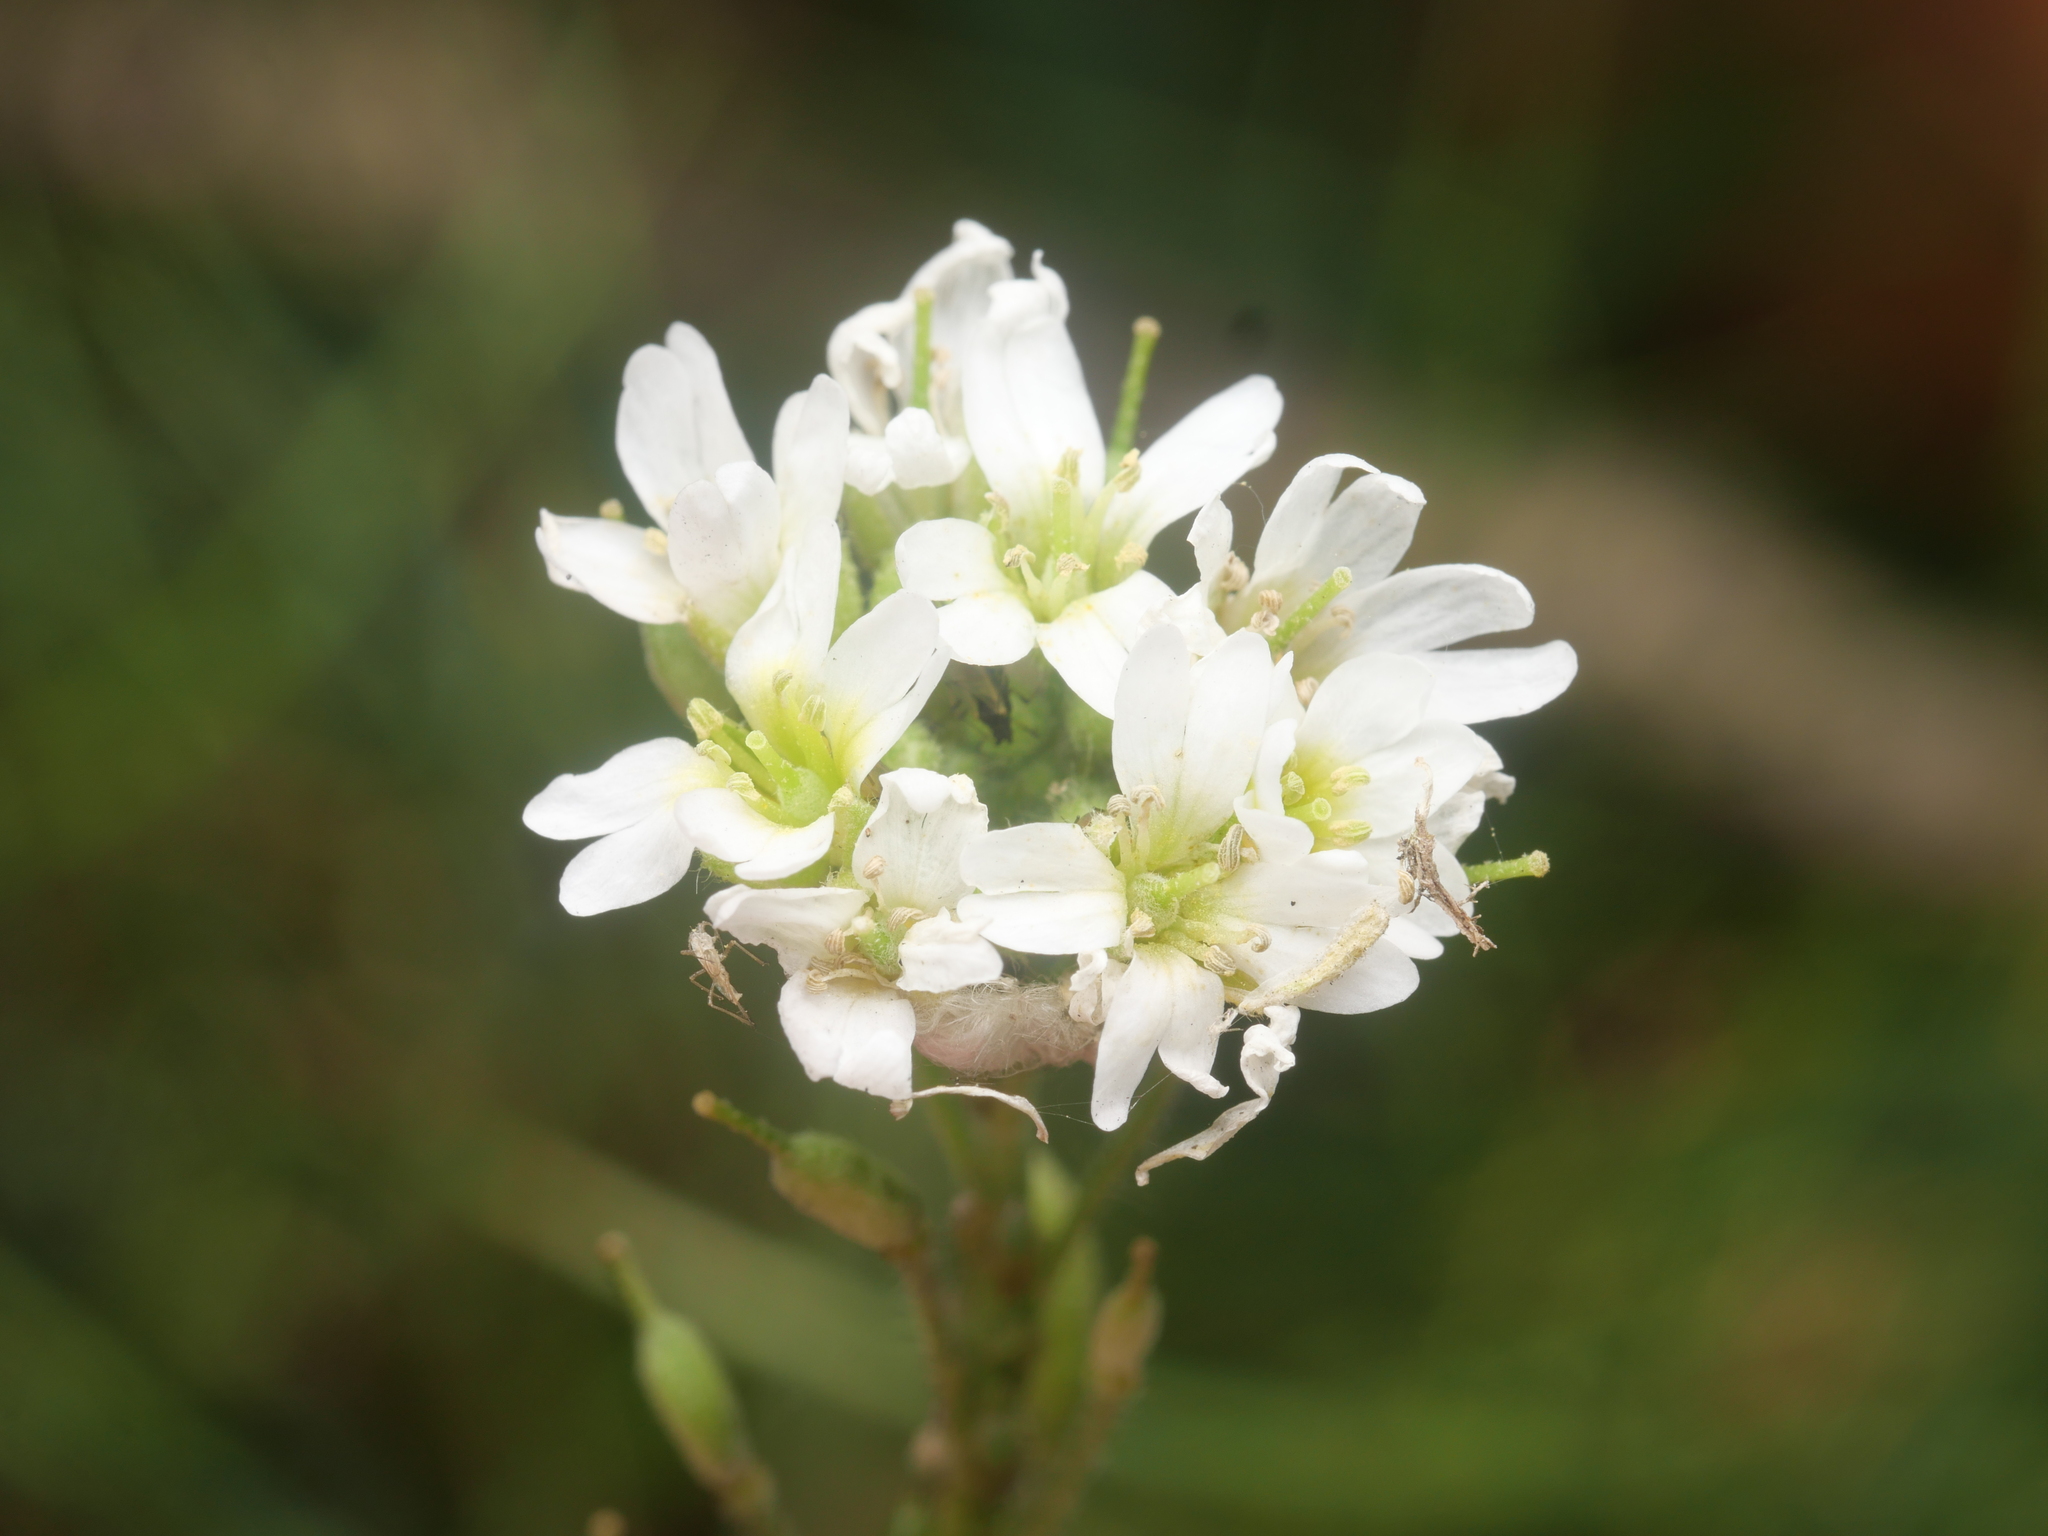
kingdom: Plantae
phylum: Tracheophyta
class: Magnoliopsida
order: Brassicales
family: Brassicaceae
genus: Berteroa
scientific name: Berteroa incana
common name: Hoary alison
